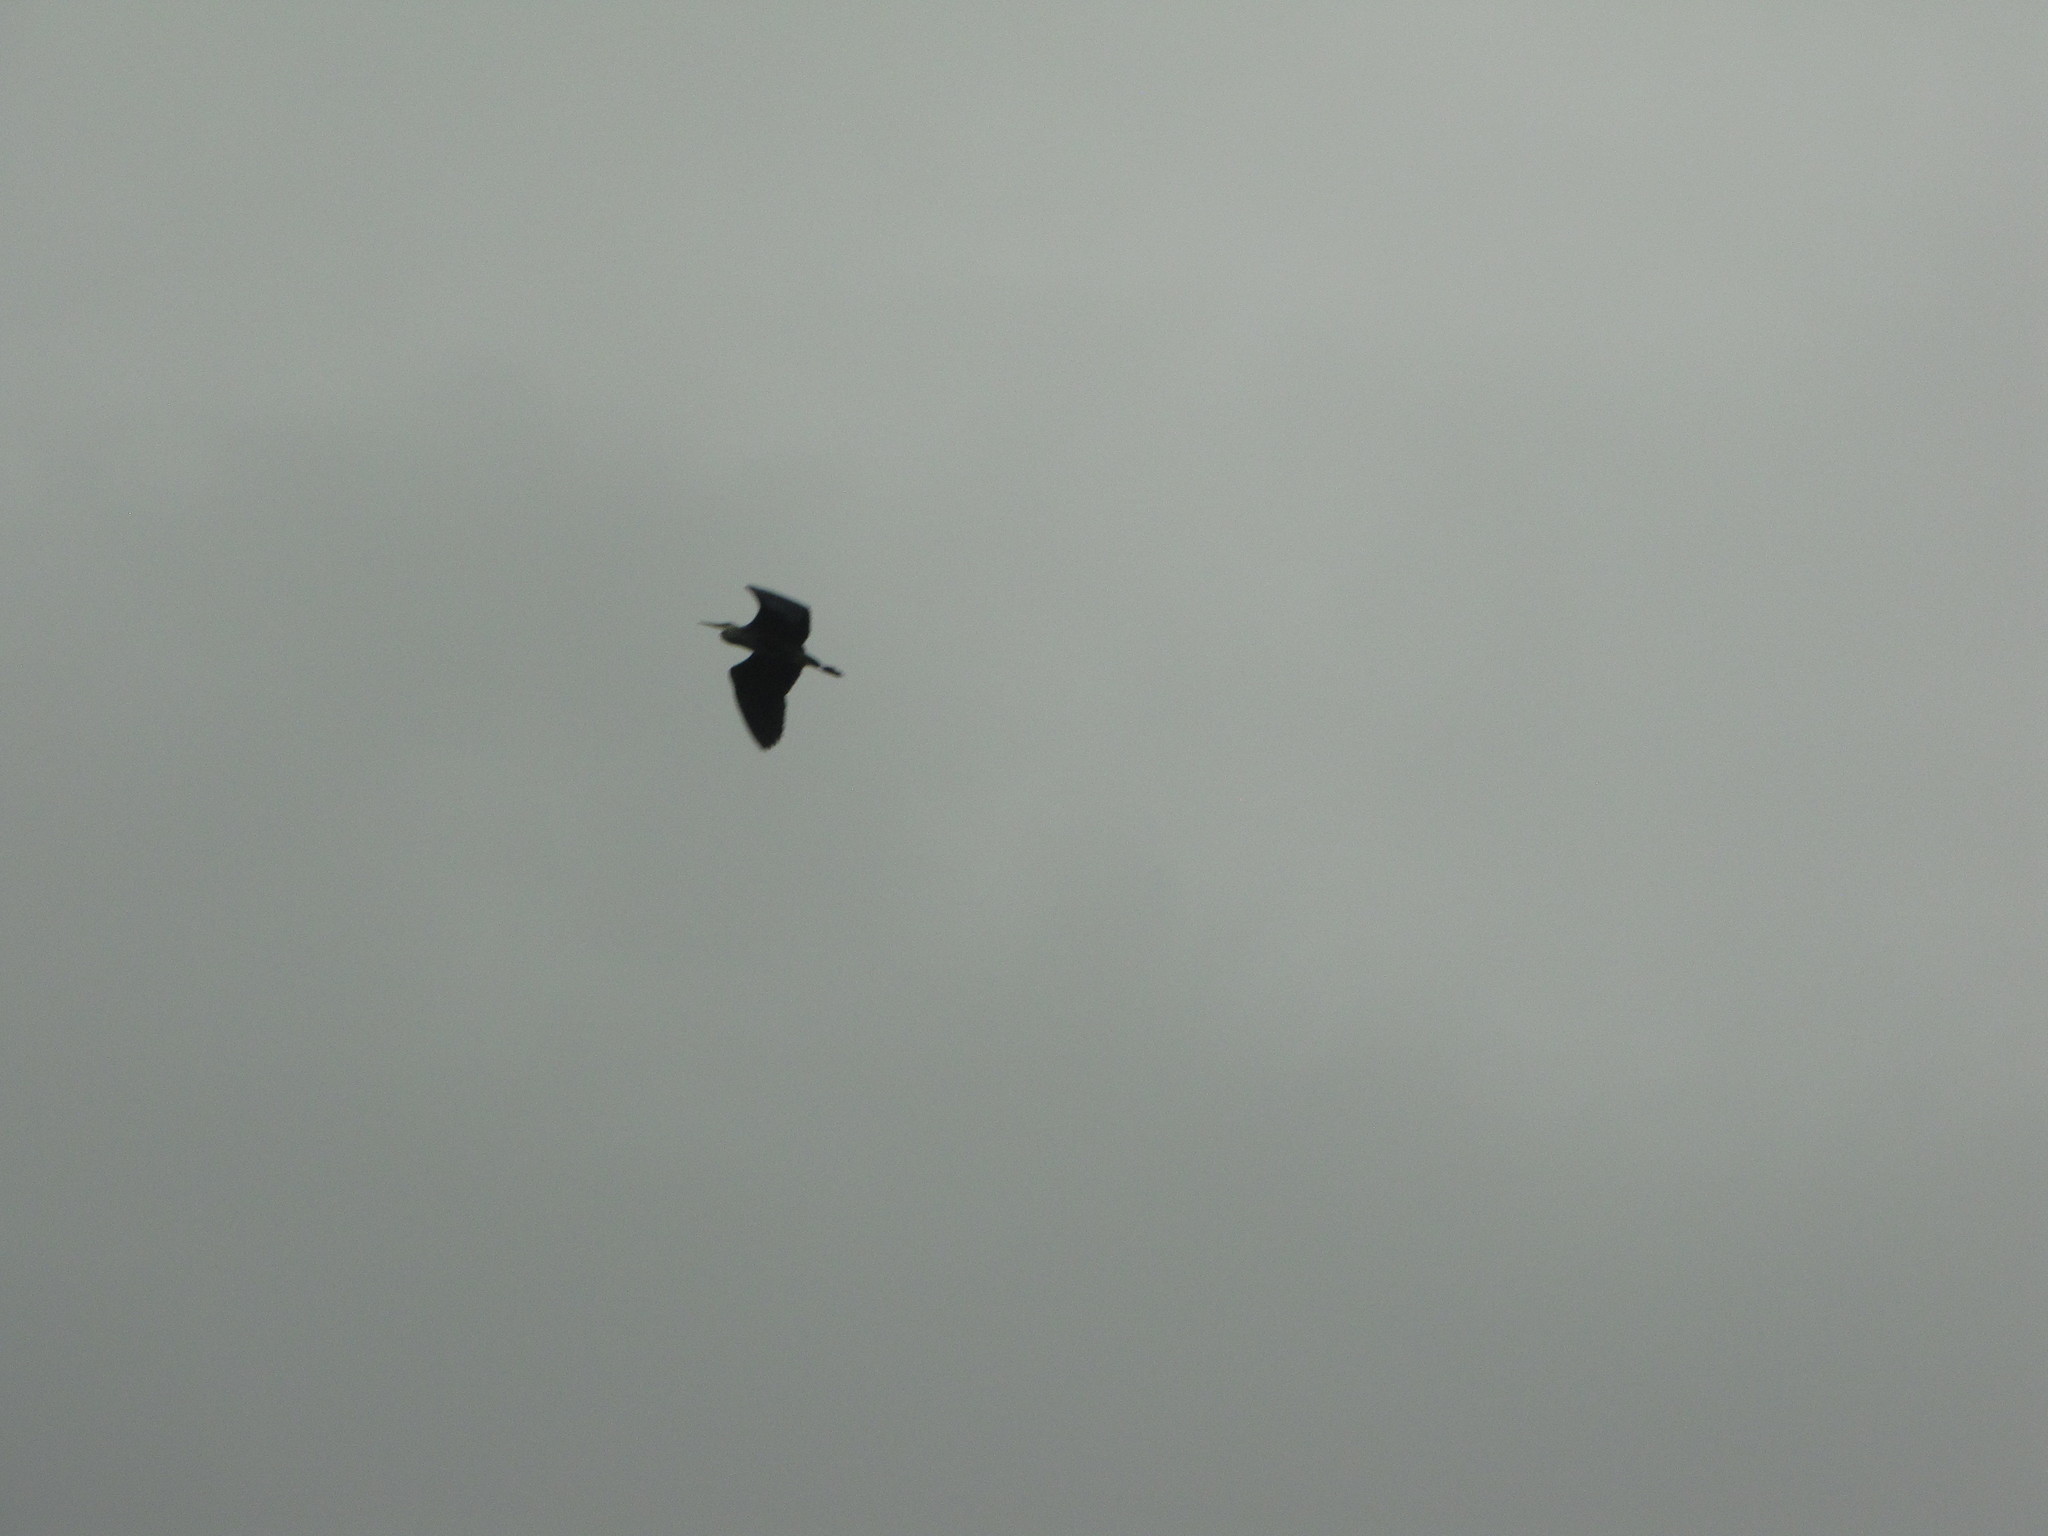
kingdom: Animalia
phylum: Chordata
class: Aves
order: Pelecaniformes
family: Ardeidae
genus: Ardea
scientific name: Ardea herodias
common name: Great blue heron
